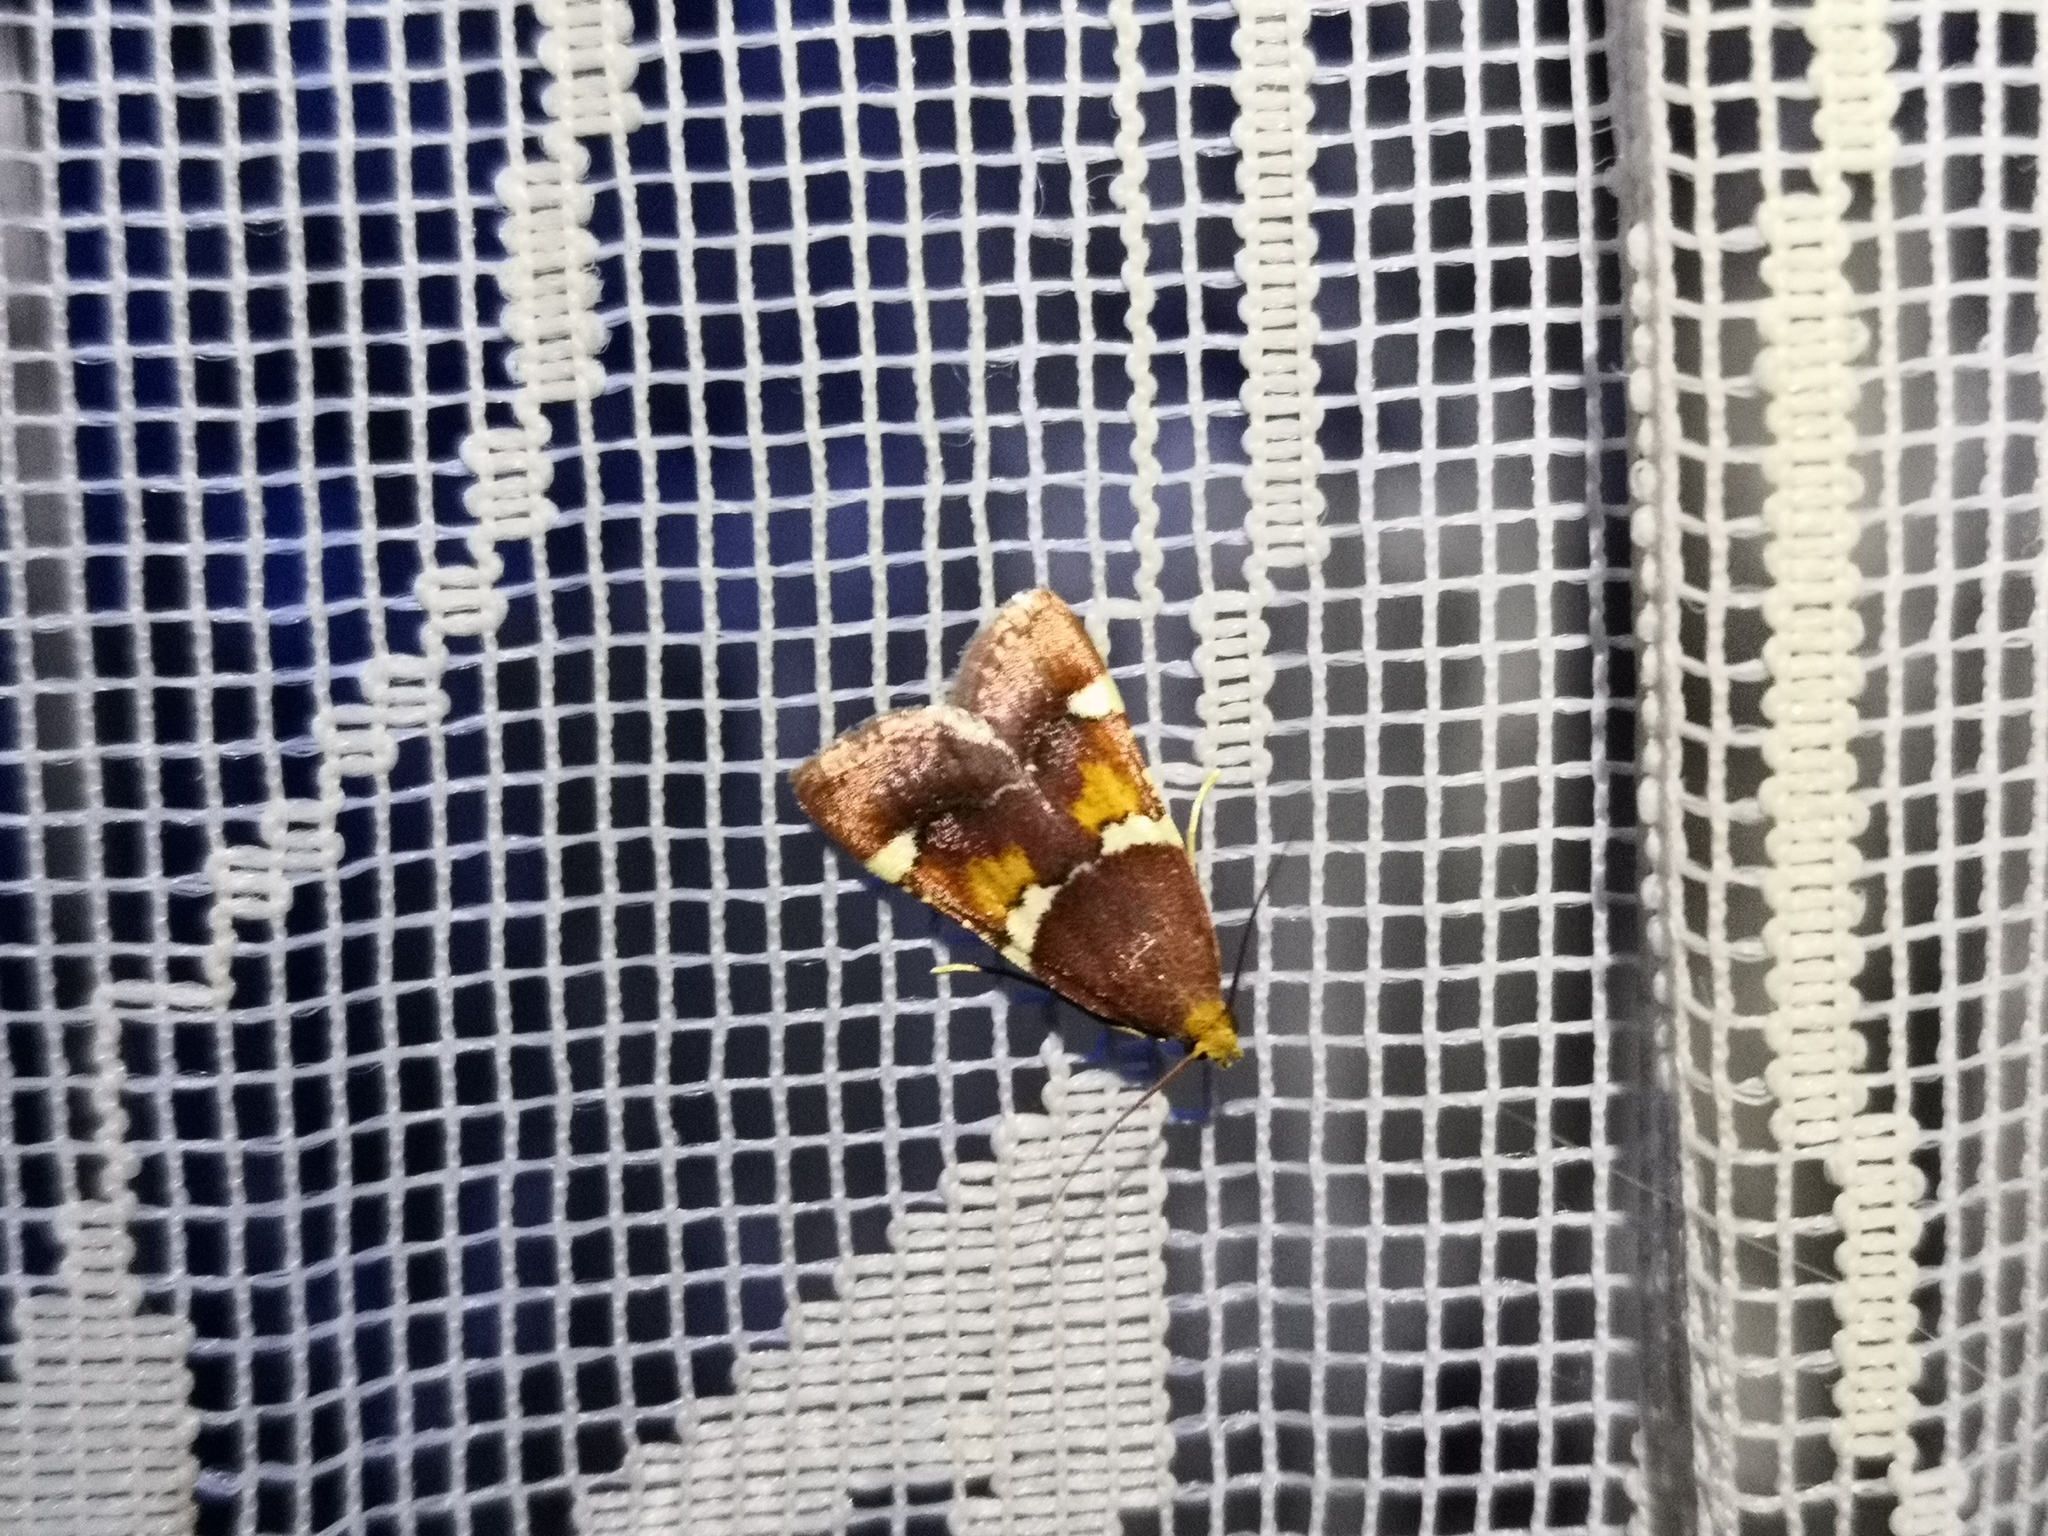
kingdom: Animalia
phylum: Arthropoda
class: Insecta
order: Lepidoptera
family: Pyralidae
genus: Pyralis
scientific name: Pyralis regalis
